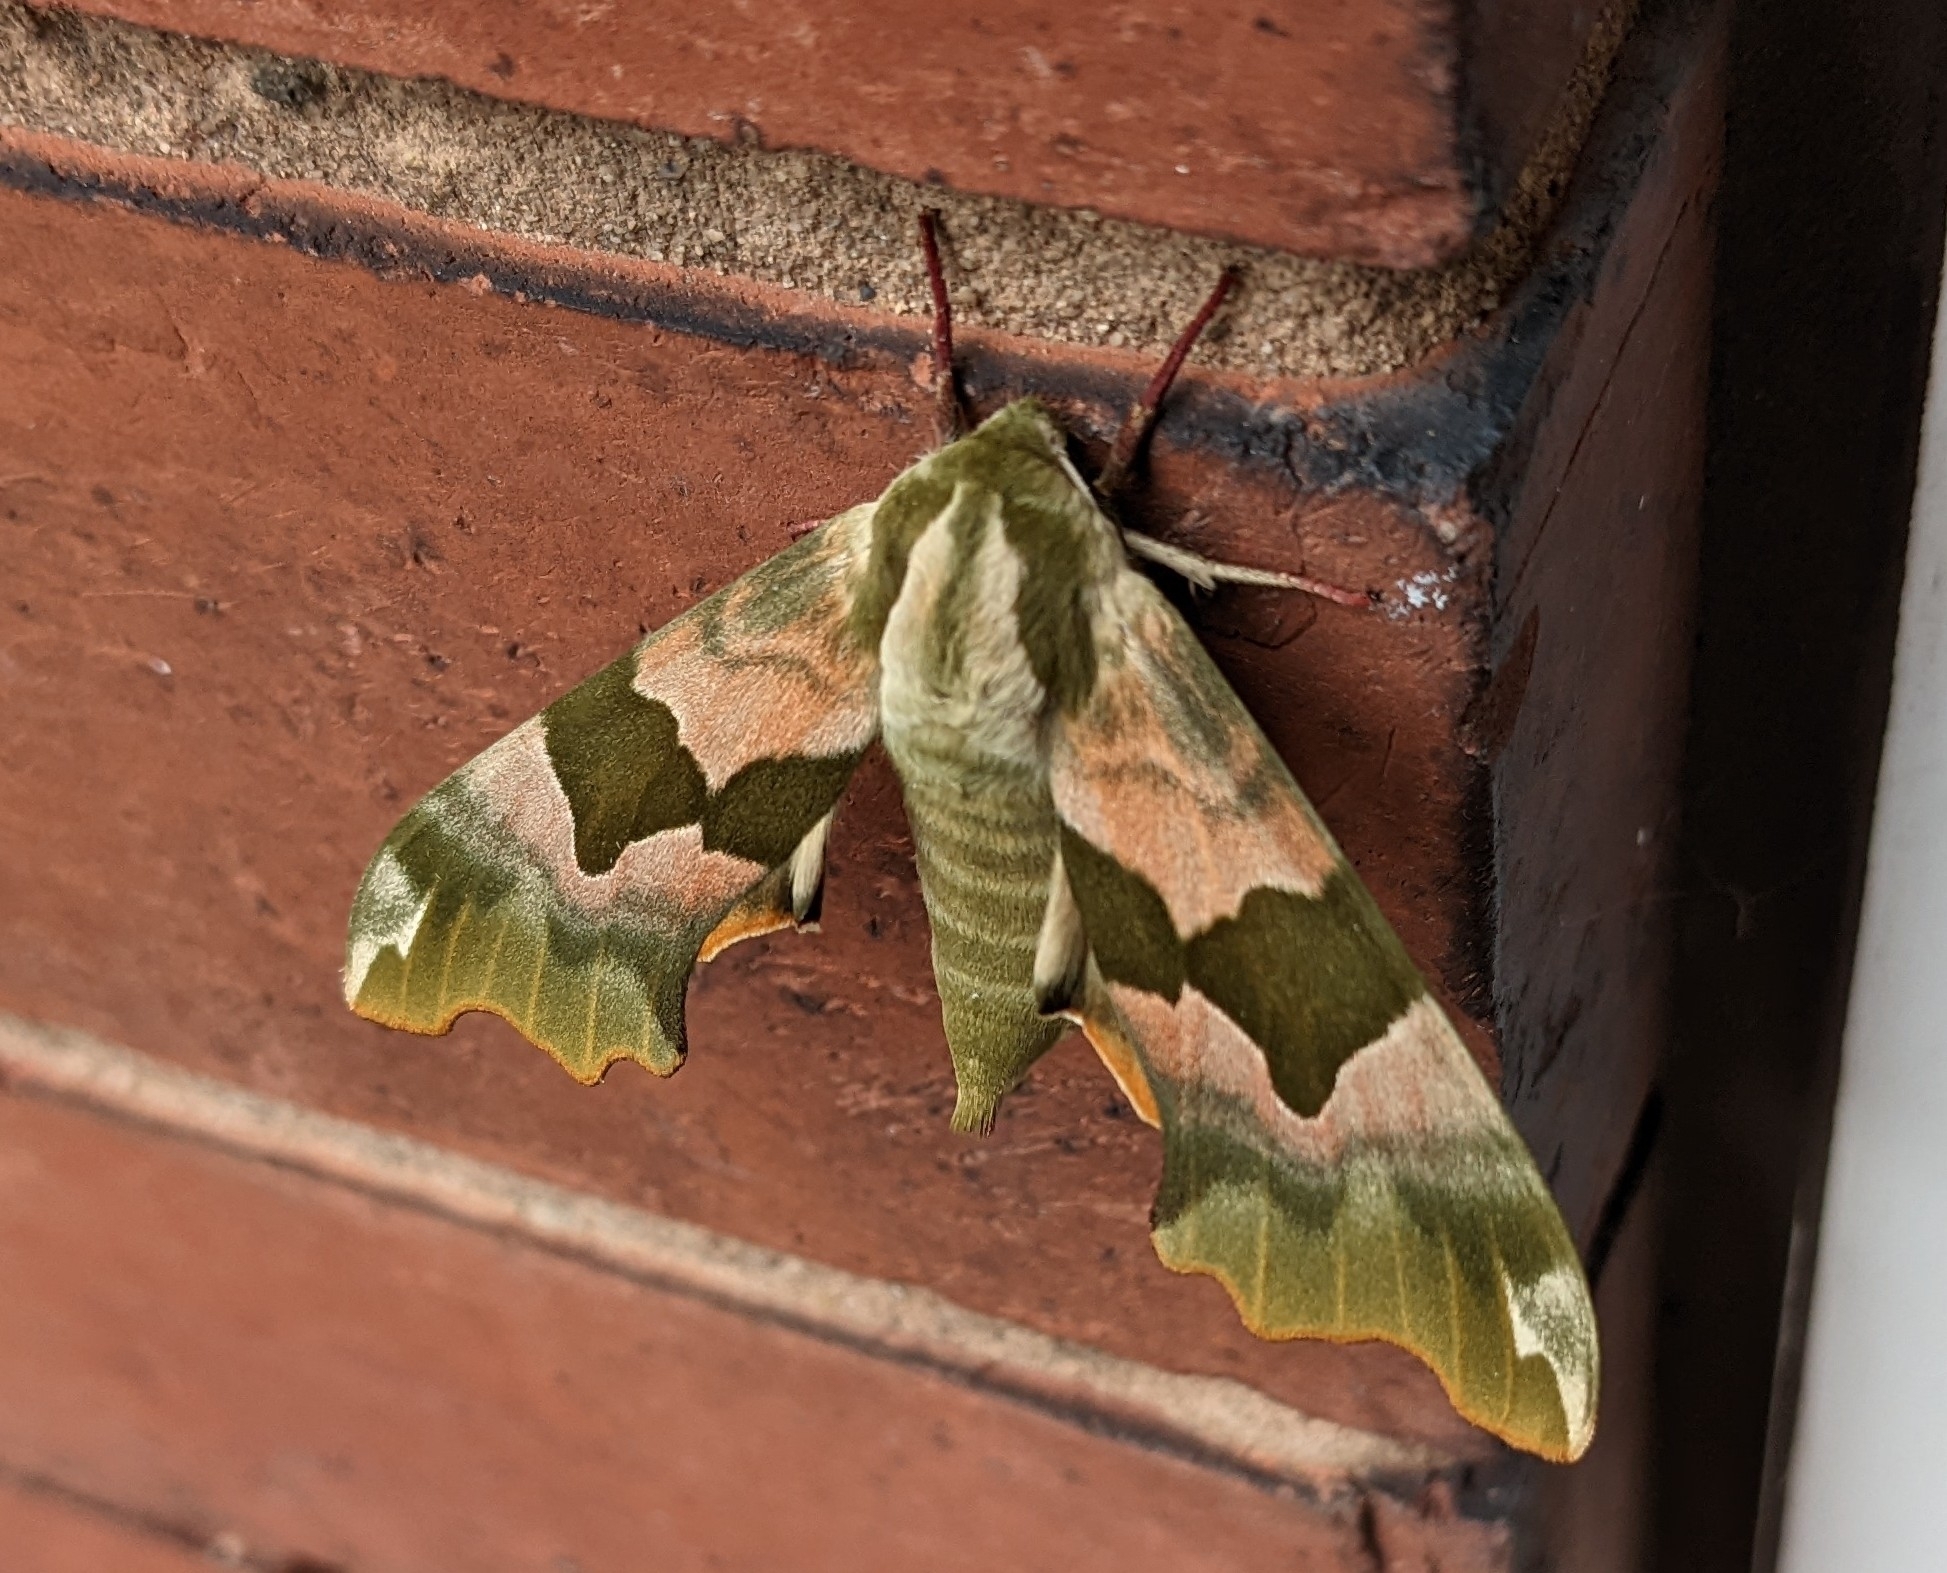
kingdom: Animalia
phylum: Arthropoda
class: Insecta
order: Lepidoptera
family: Sphingidae
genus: Mimas
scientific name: Mimas tiliae
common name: Lime hawk-moth
